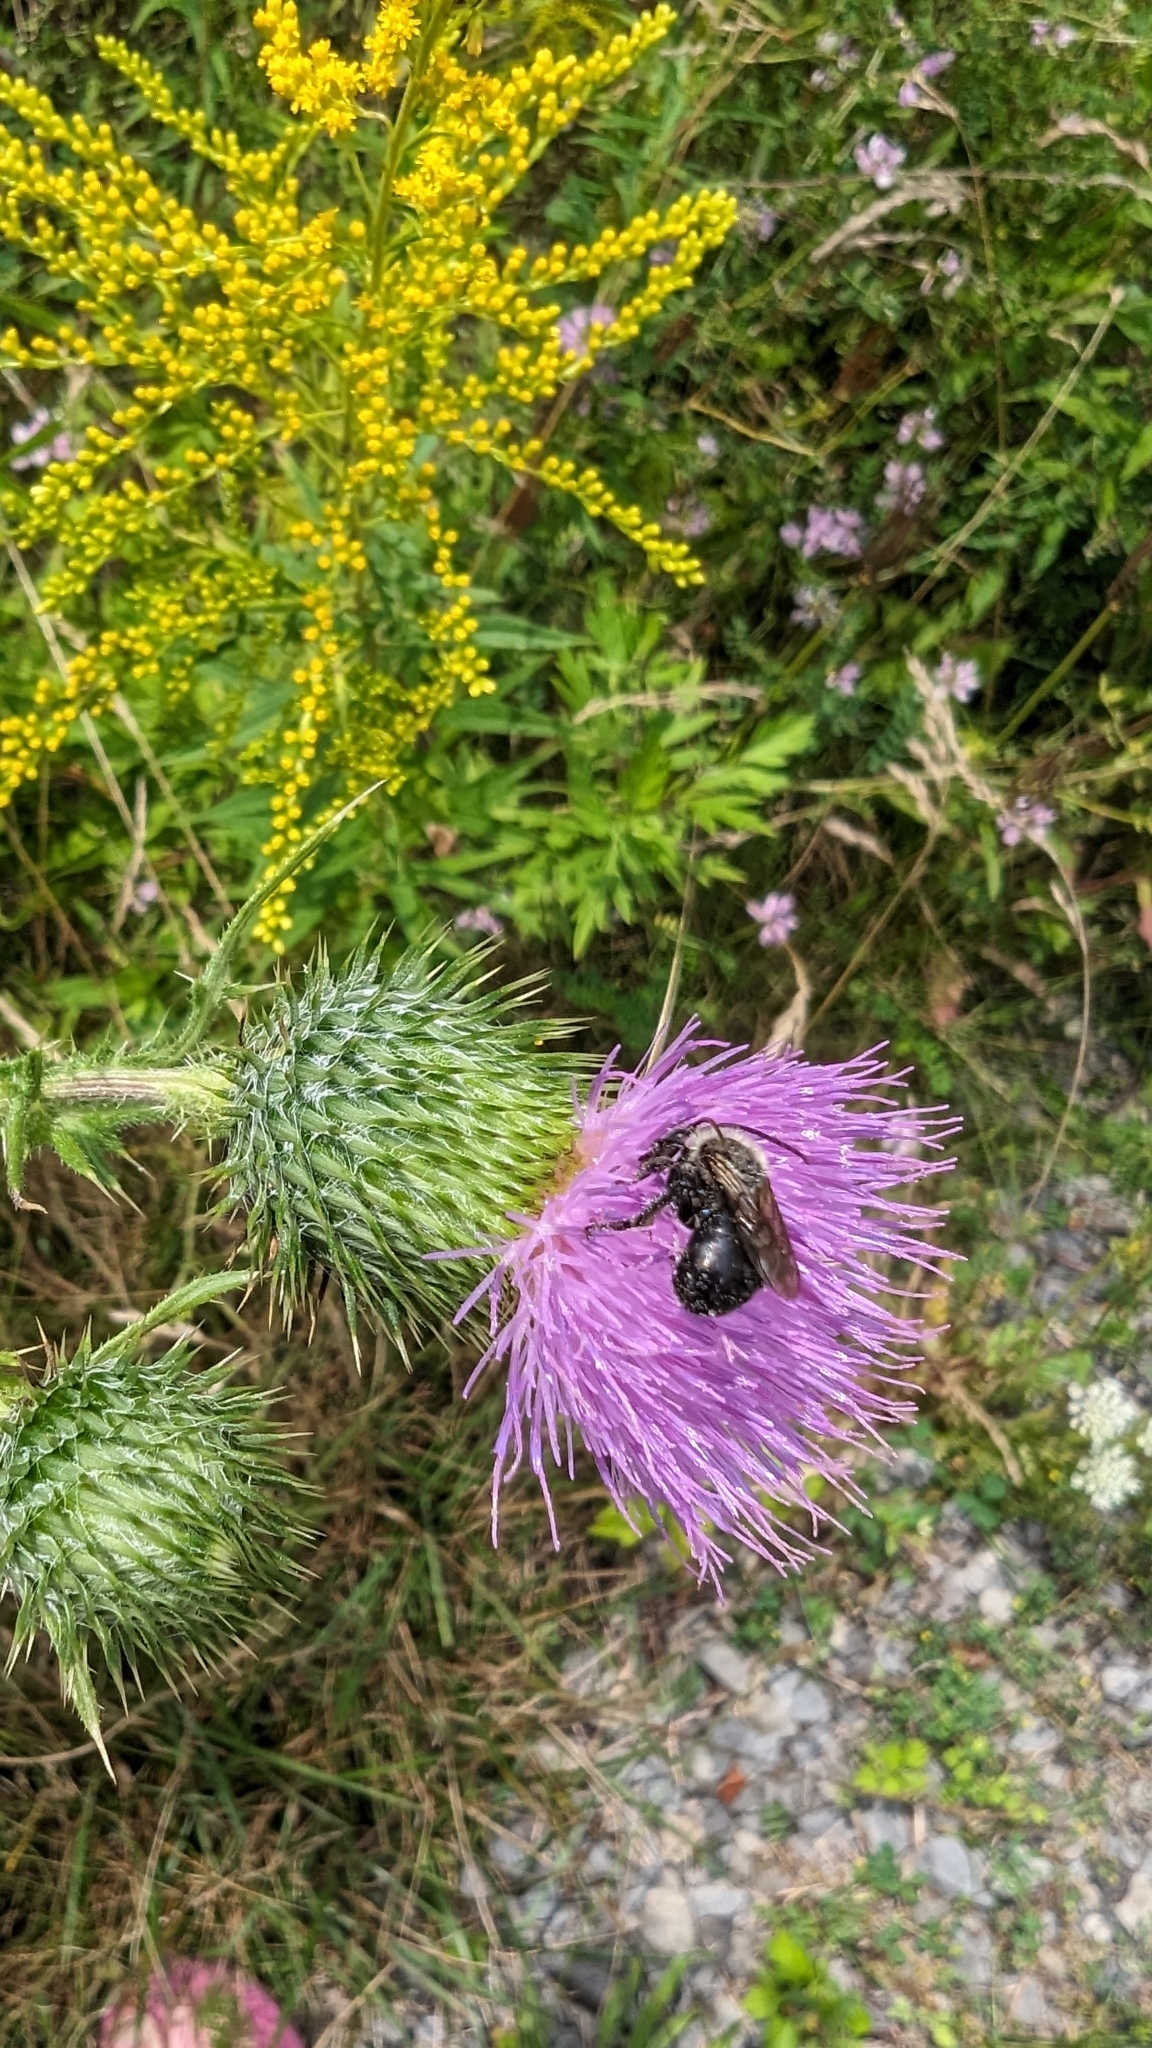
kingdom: Animalia
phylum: Arthropoda
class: Insecta
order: Hymenoptera
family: Apidae
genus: Melissodes
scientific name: Melissodes desponsus
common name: Thistle long-horned bee
